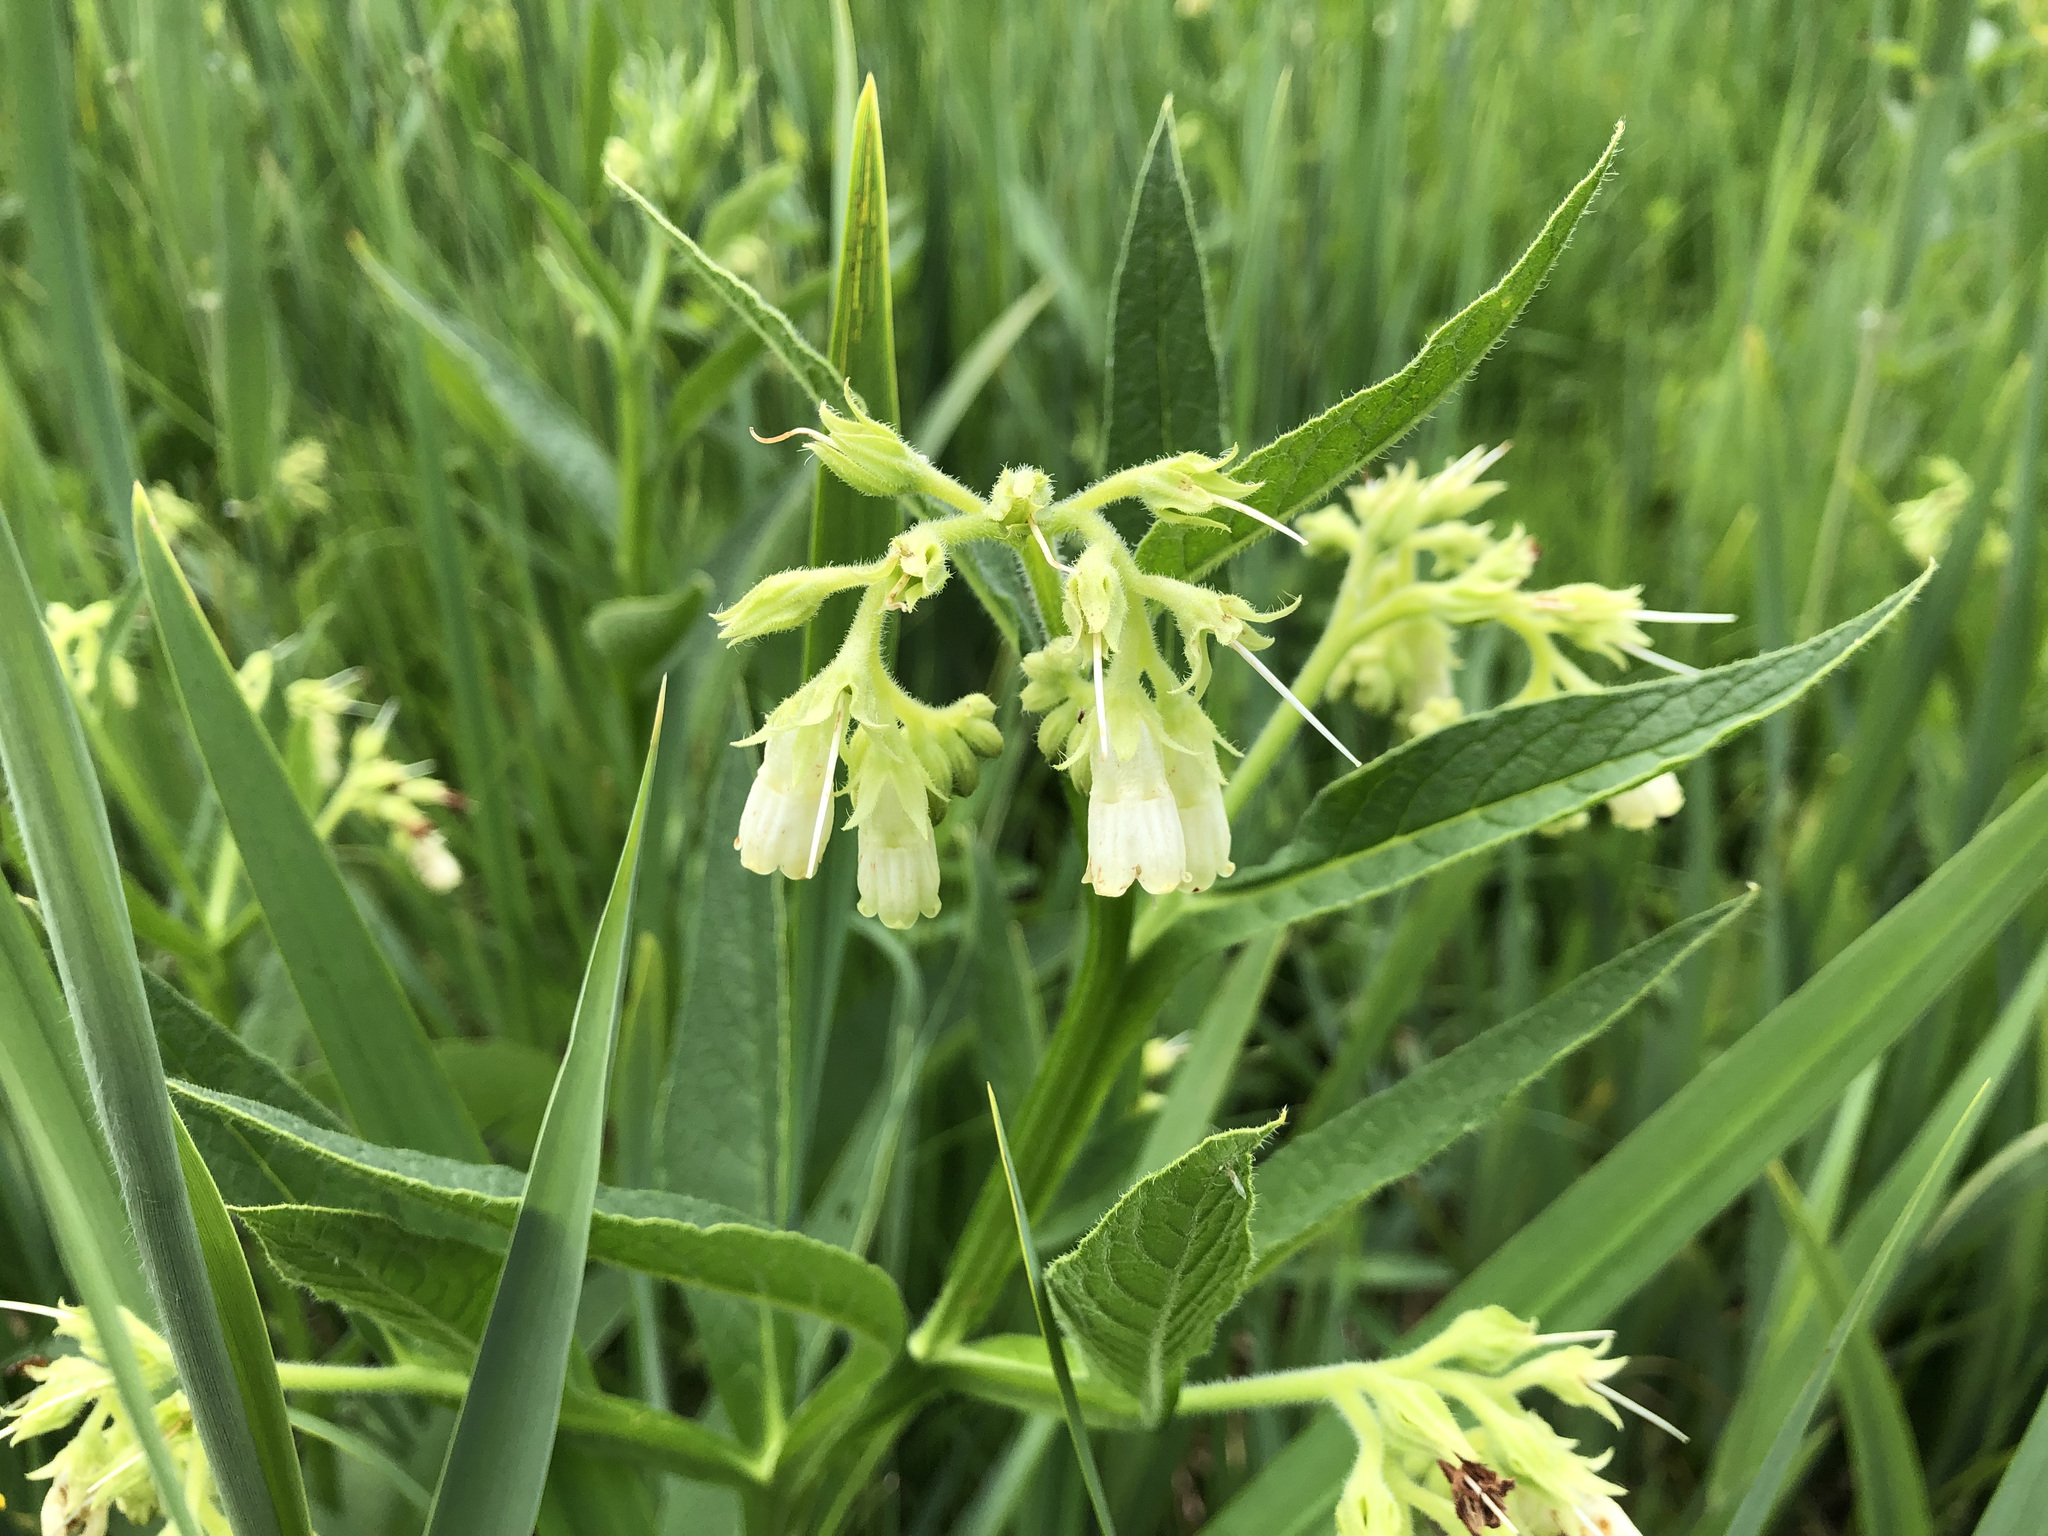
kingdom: Plantae
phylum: Tracheophyta
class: Magnoliopsida
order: Boraginales
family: Boraginaceae
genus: Symphytum
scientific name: Symphytum officinale
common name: Common comfrey
